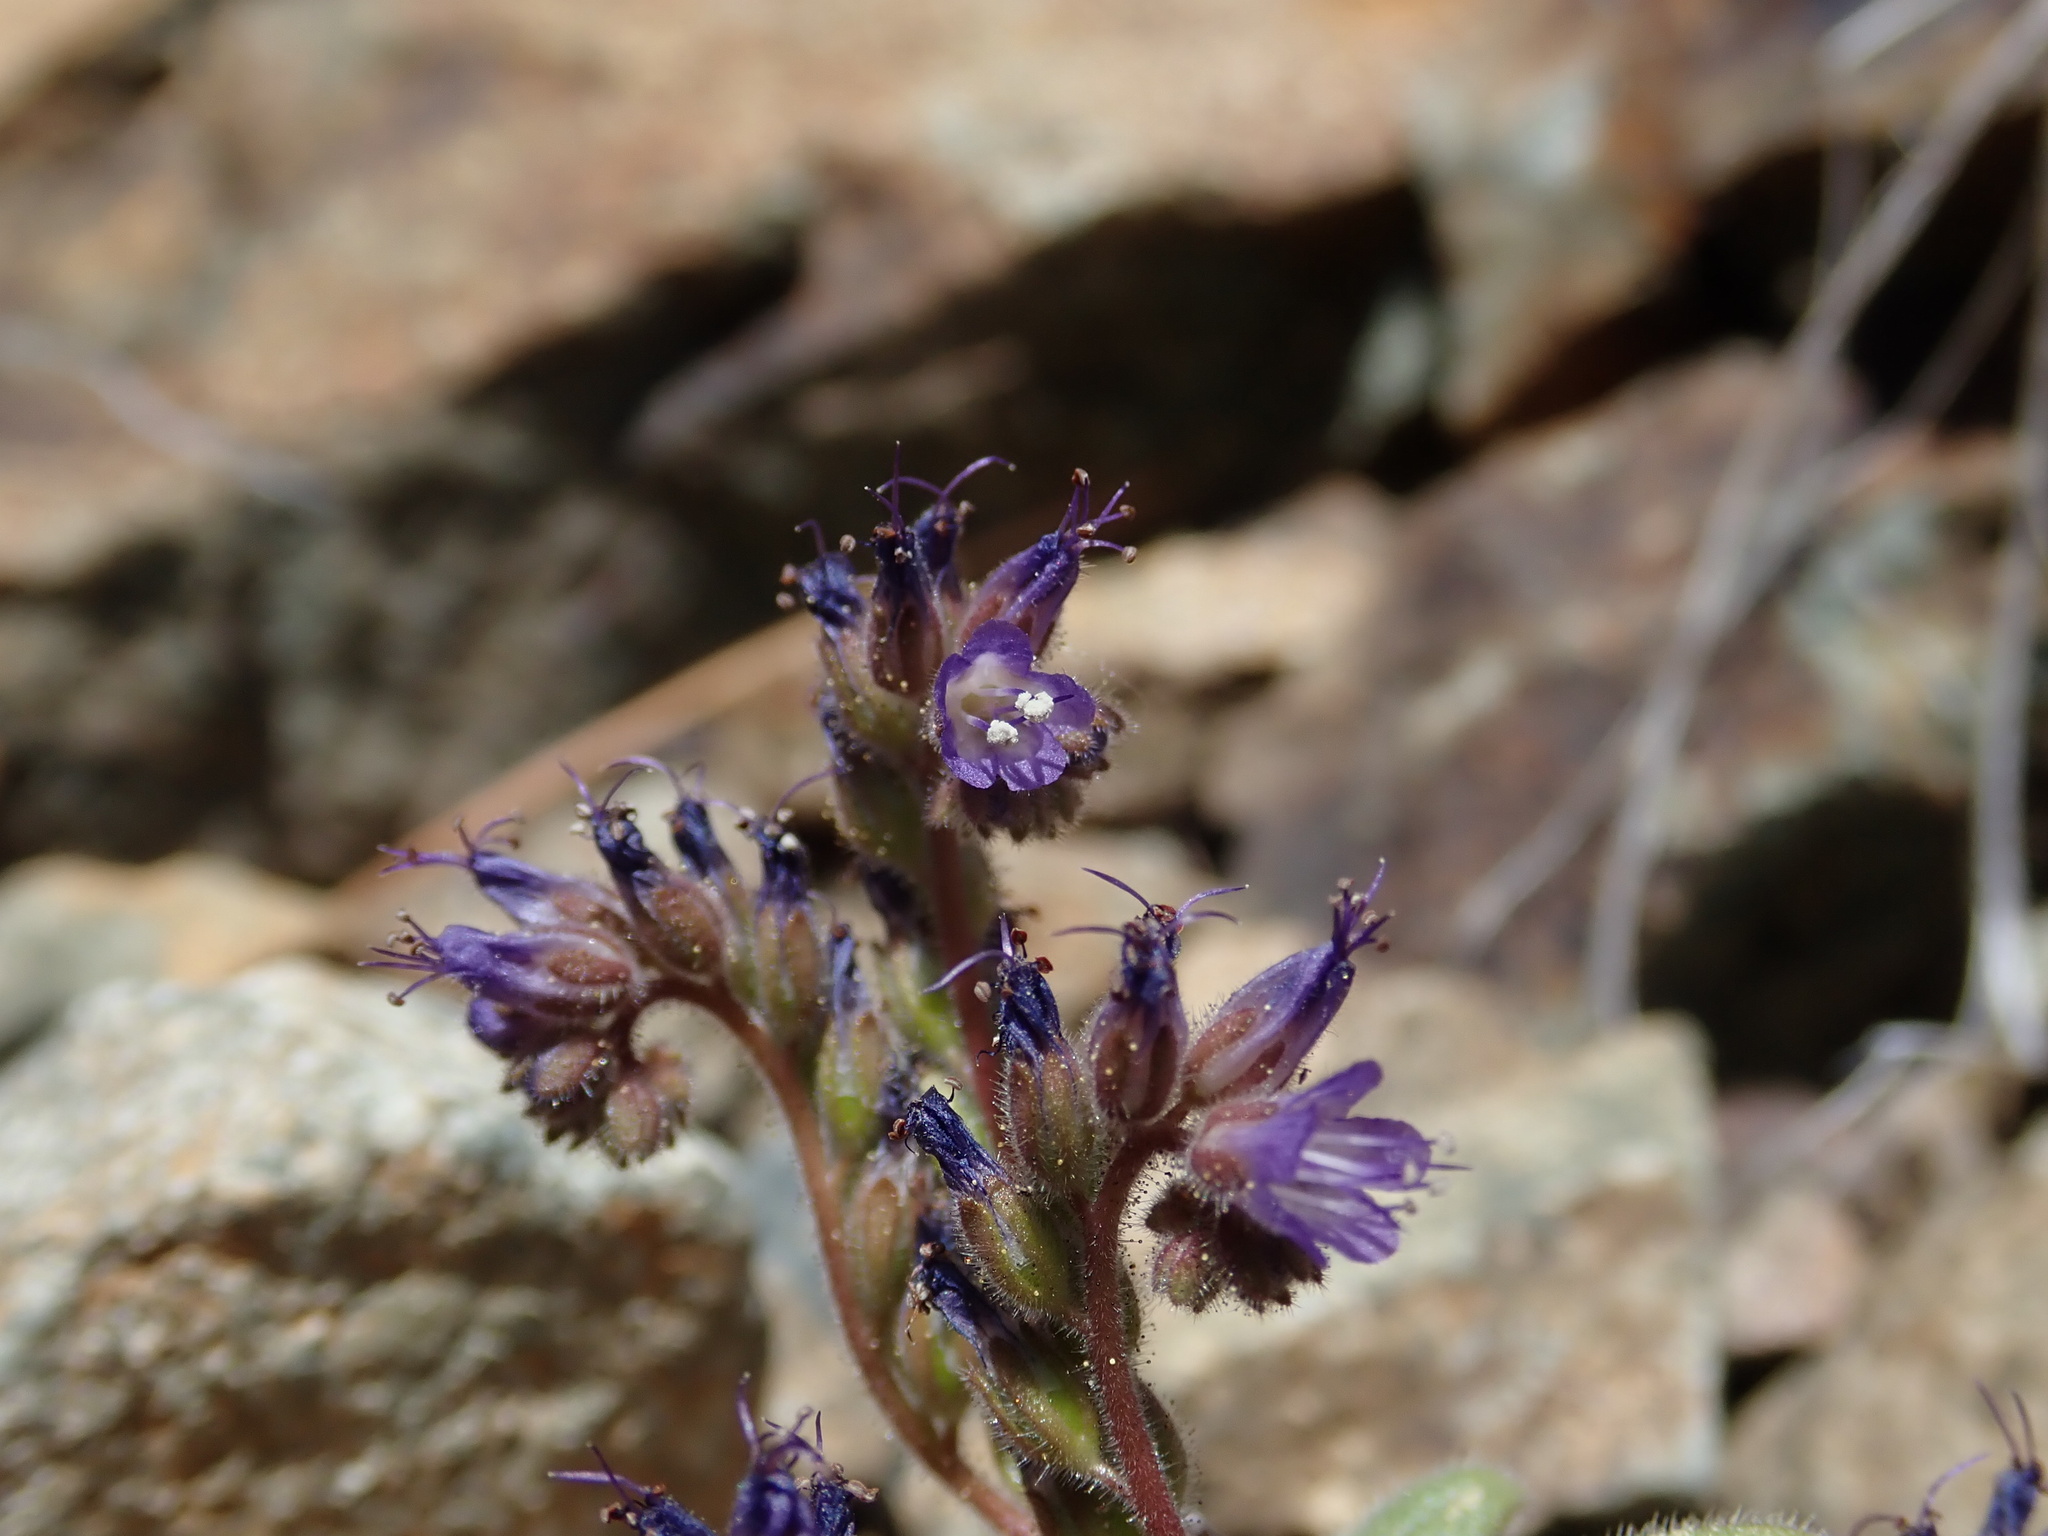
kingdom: Plantae
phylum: Tracheophyta
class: Magnoliopsida
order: Boraginales
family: Hydrophyllaceae
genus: Phacelia
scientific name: Phacelia humilis
